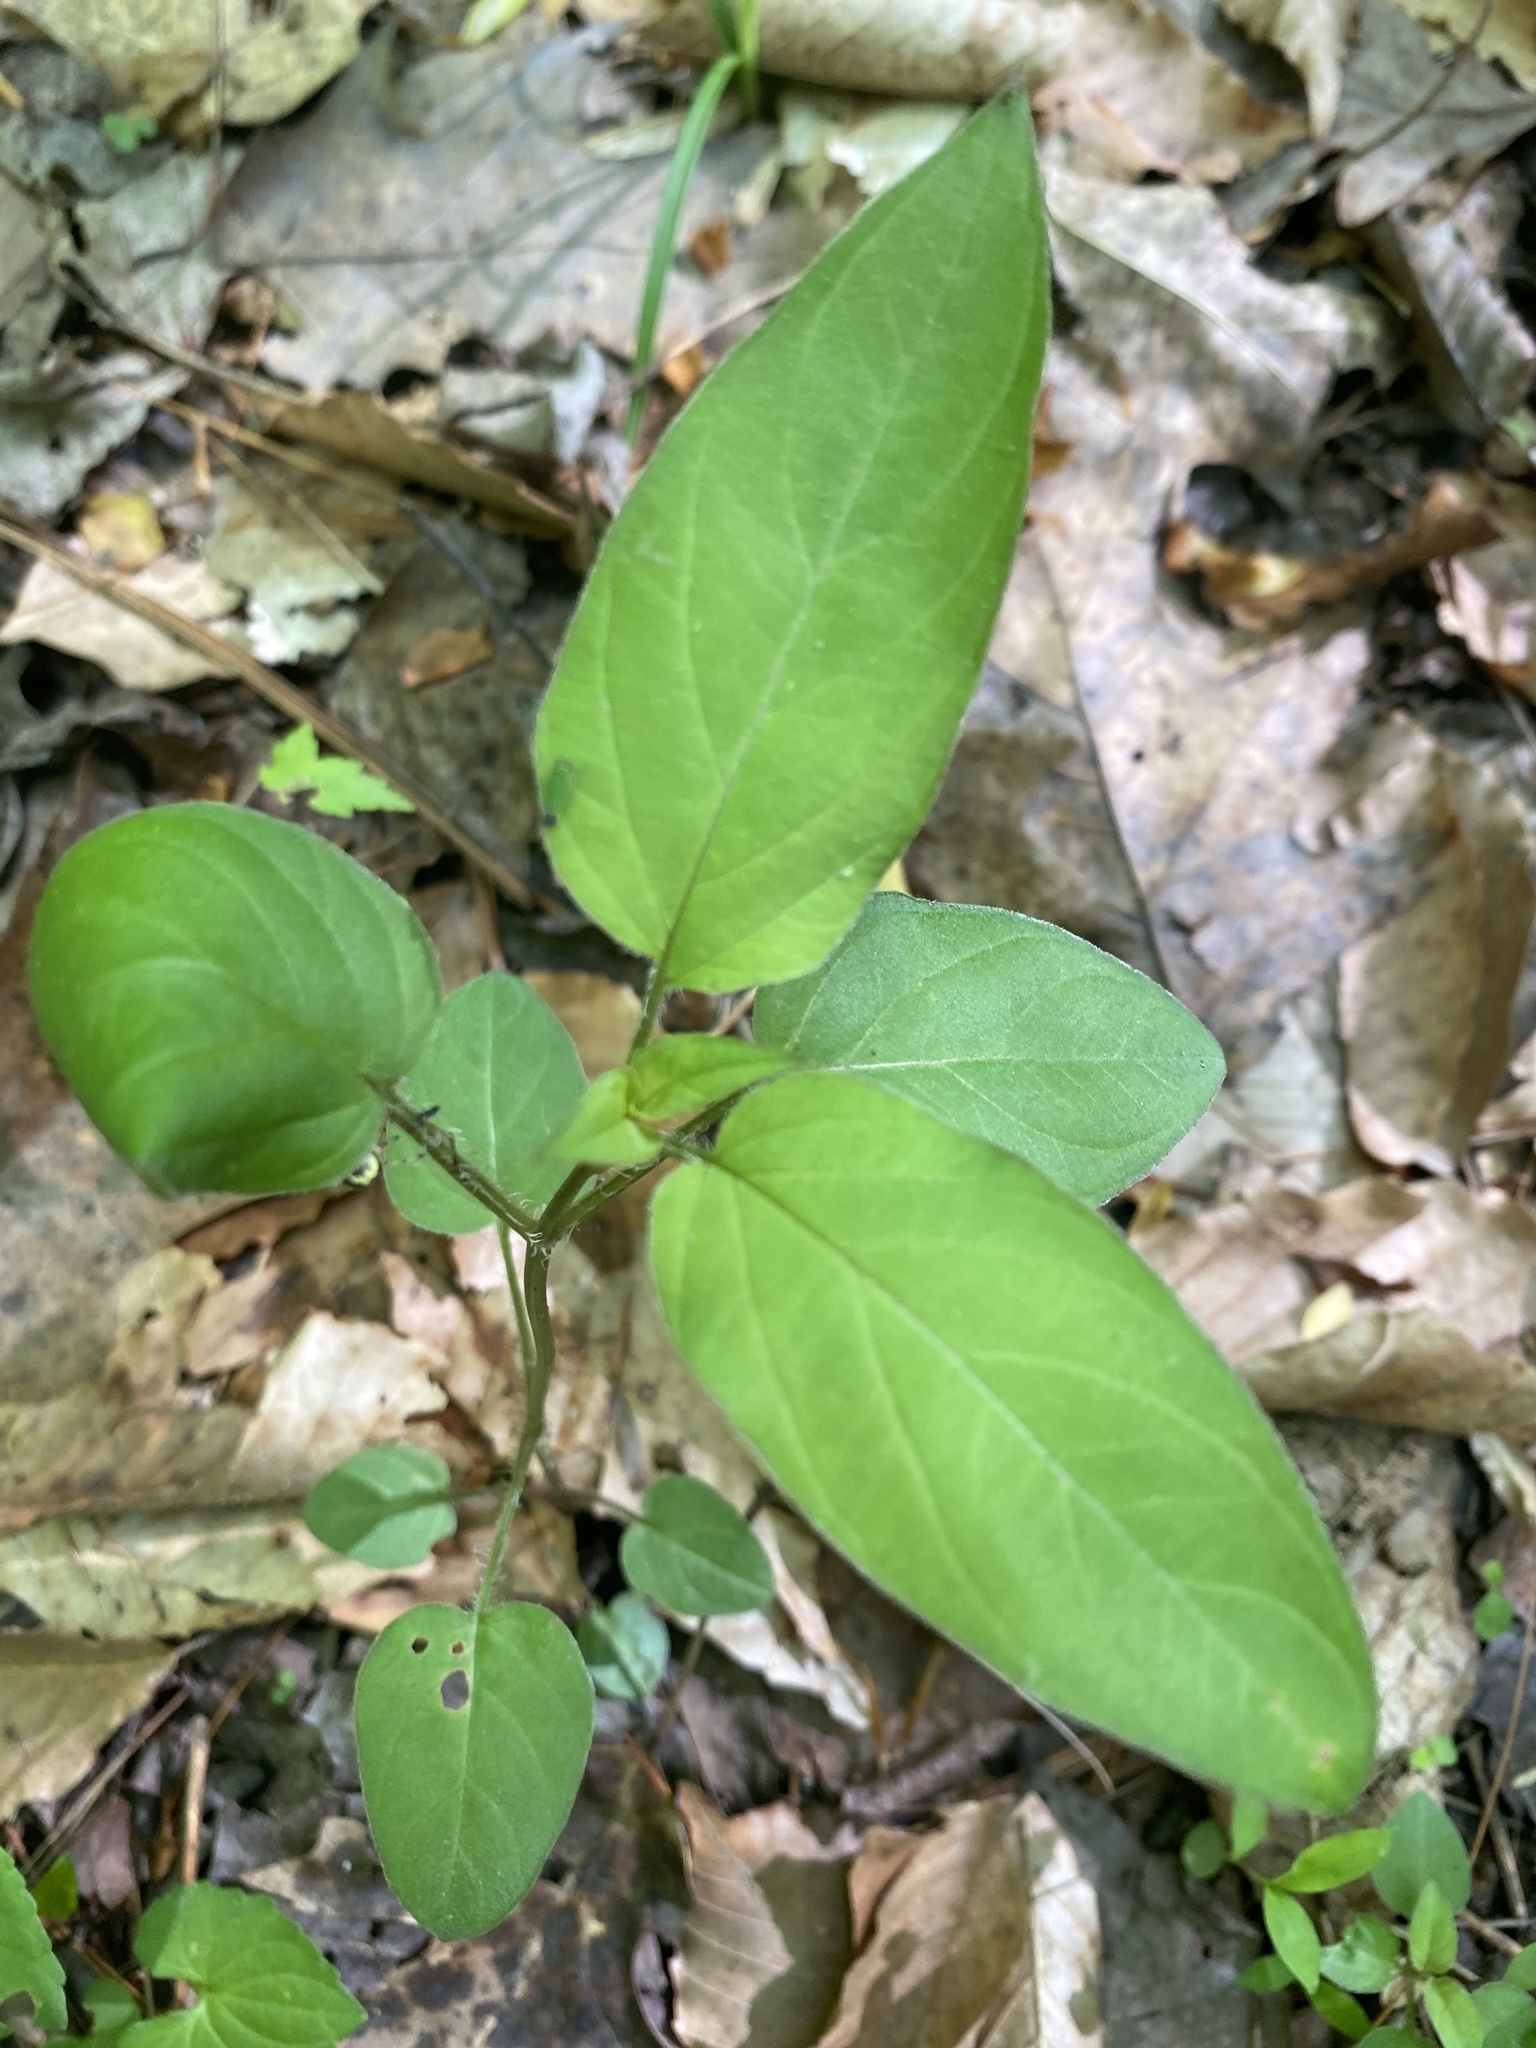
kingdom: Plantae
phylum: Tracheophyta
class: Magnoliopsida
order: Ericales
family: Primulaceae
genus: Lysimachia
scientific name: Lysimachia ciliata
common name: Fringed loosestrife
